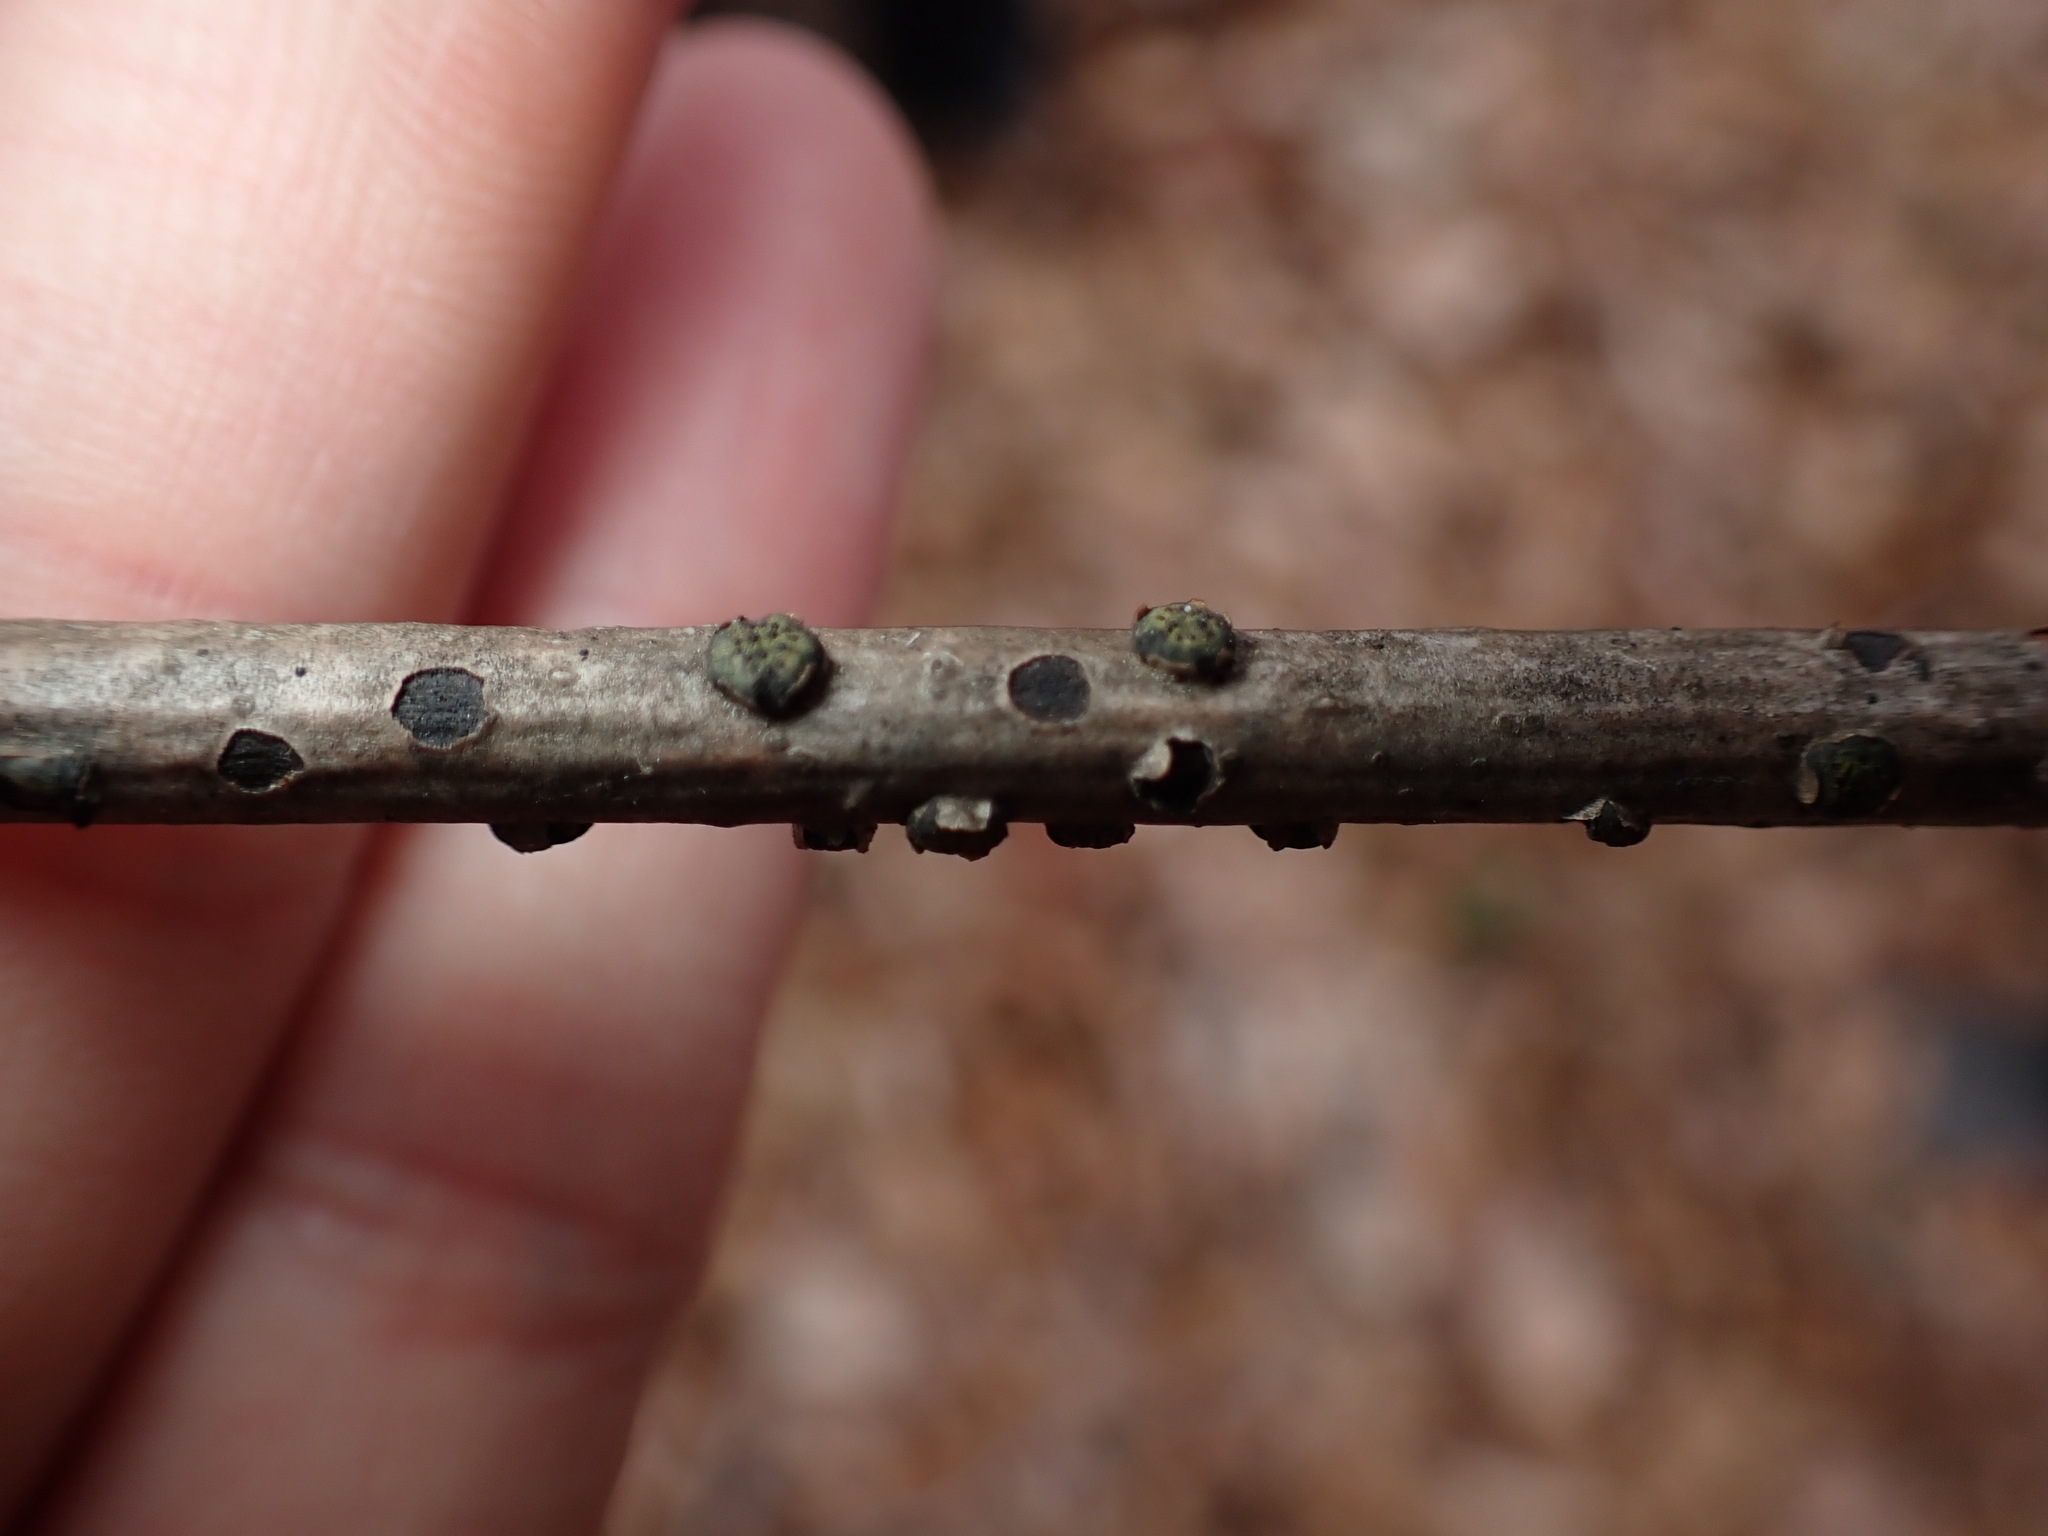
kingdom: Fungi
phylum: Ascomycota
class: Sordariomycetes
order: Xylariales
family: Diatrypaceae
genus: Diatrype
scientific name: Diatrype virescens
